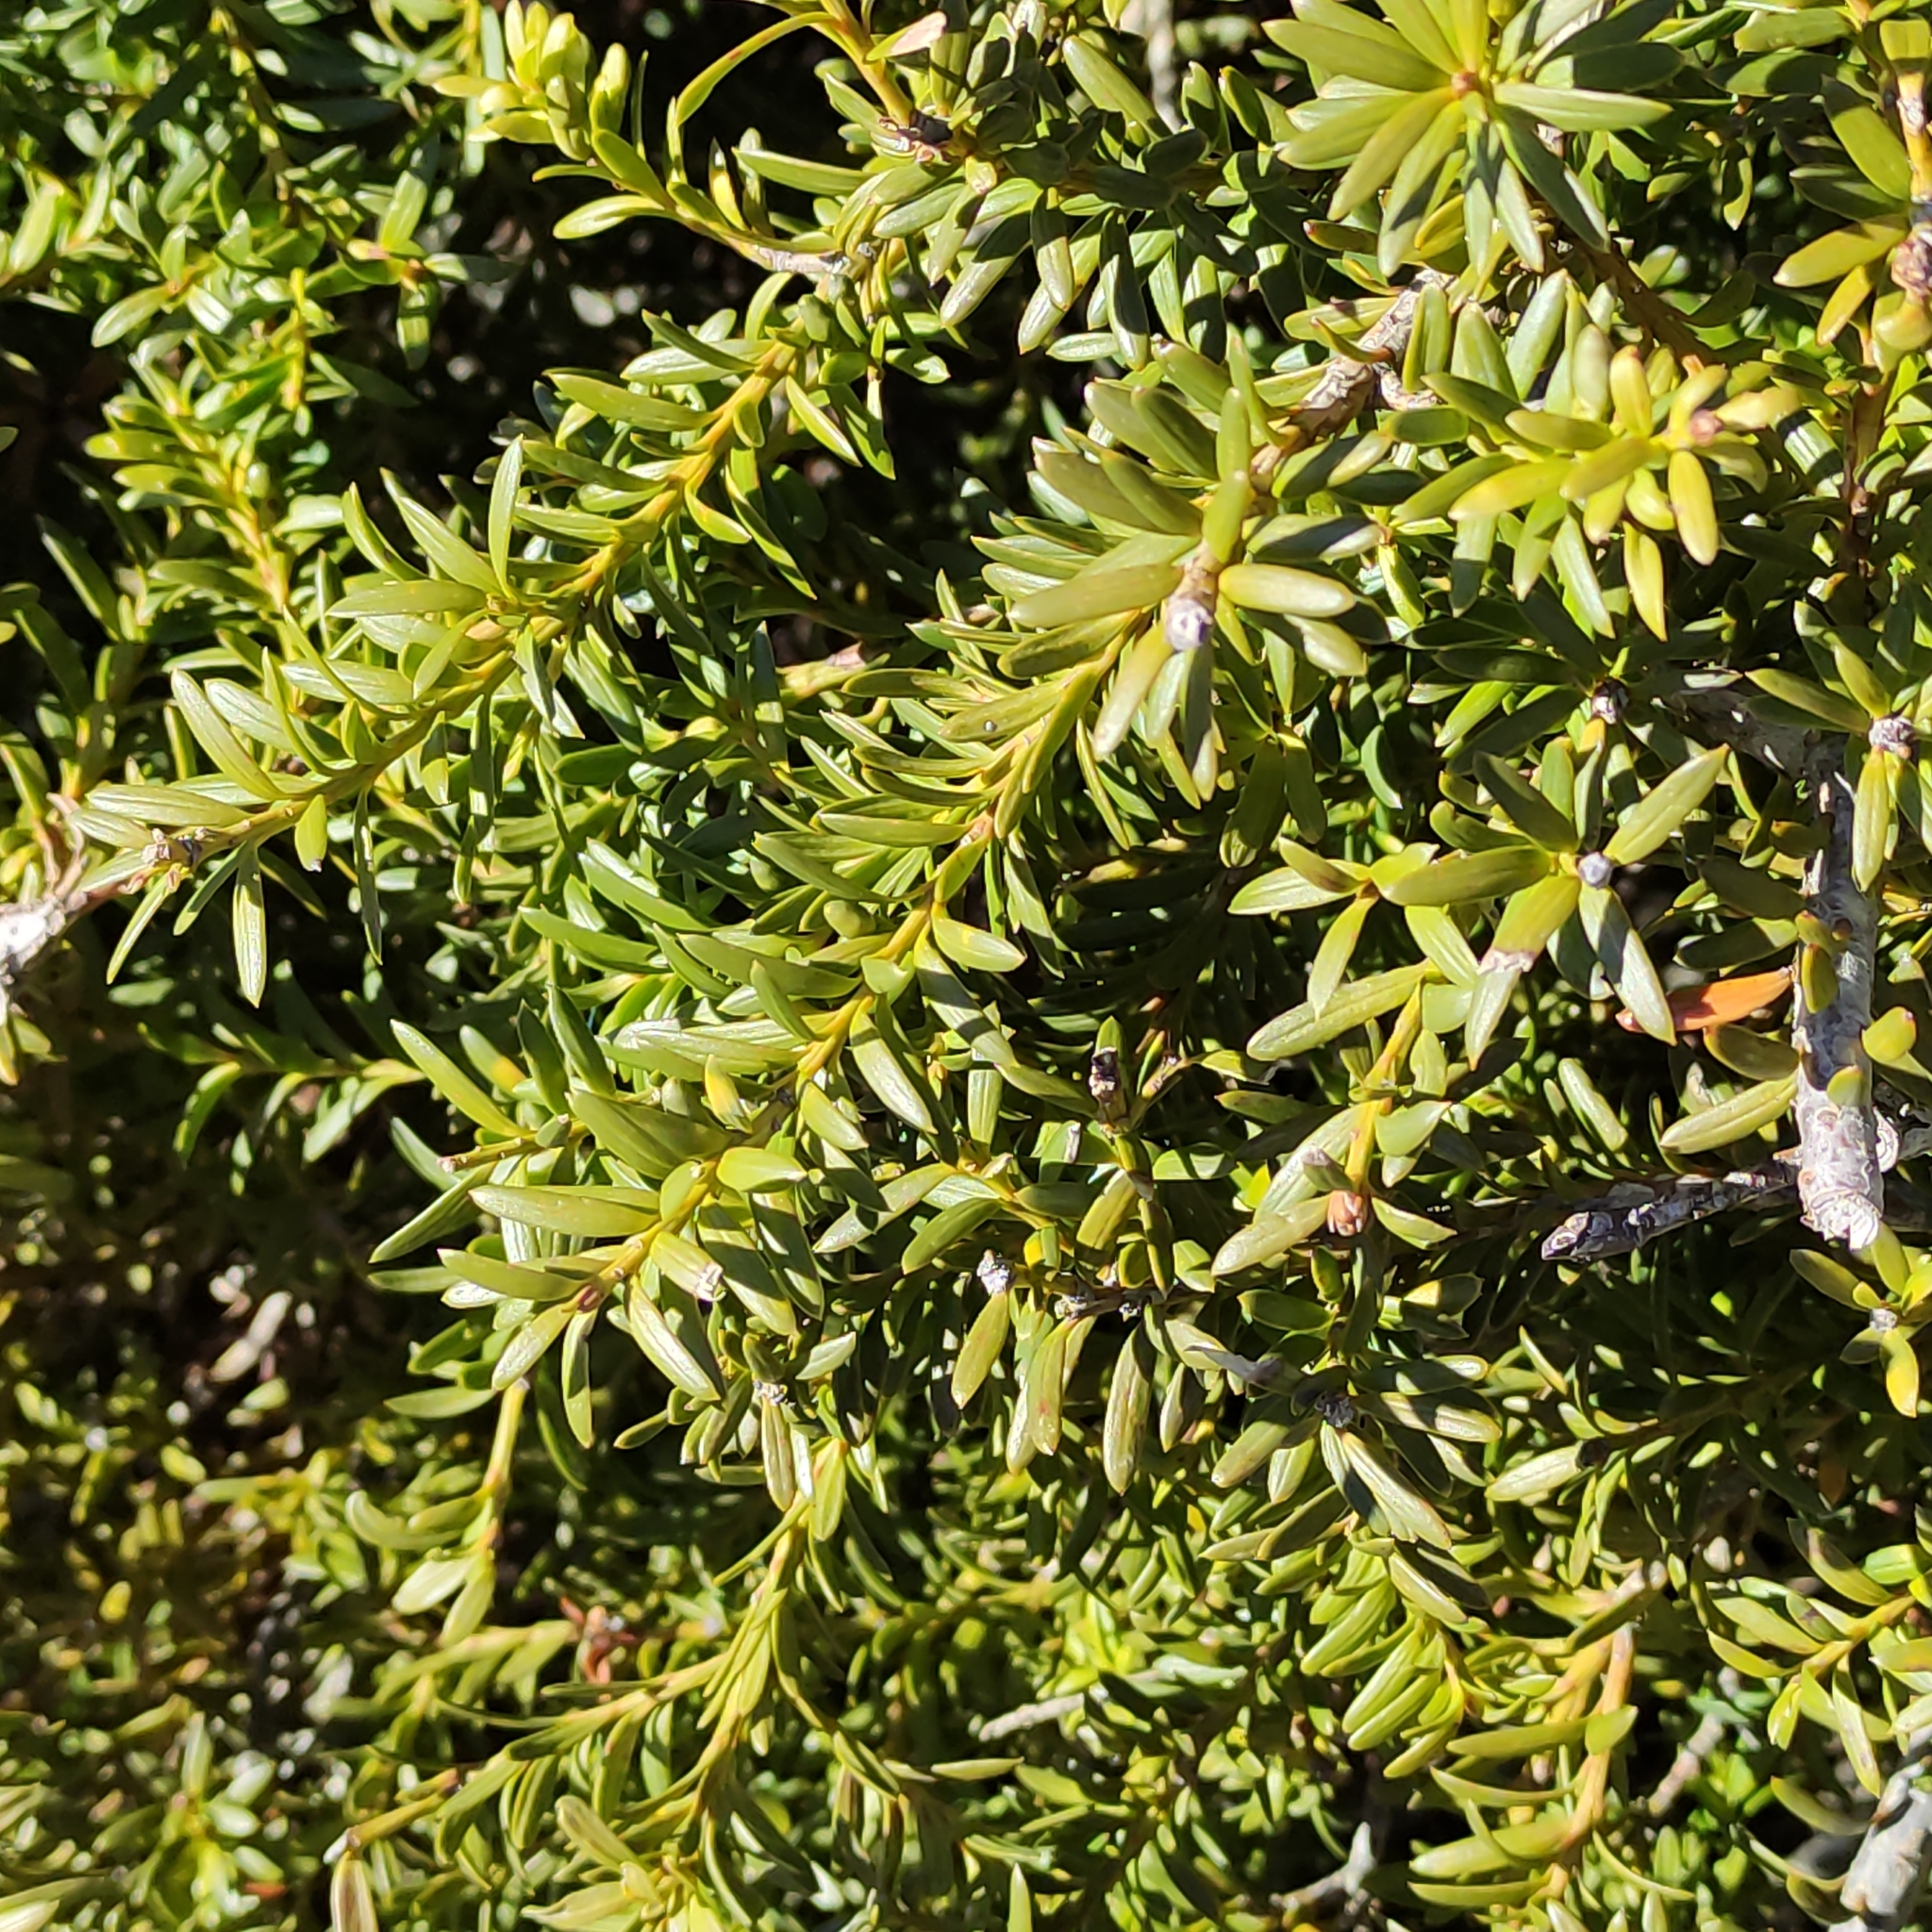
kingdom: Plantae
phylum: Tracheophyta
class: Pinopsida
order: Pinales
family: Podocarpaceae
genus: Podocarpus
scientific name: Podocarpus laetus
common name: Hall's totara
